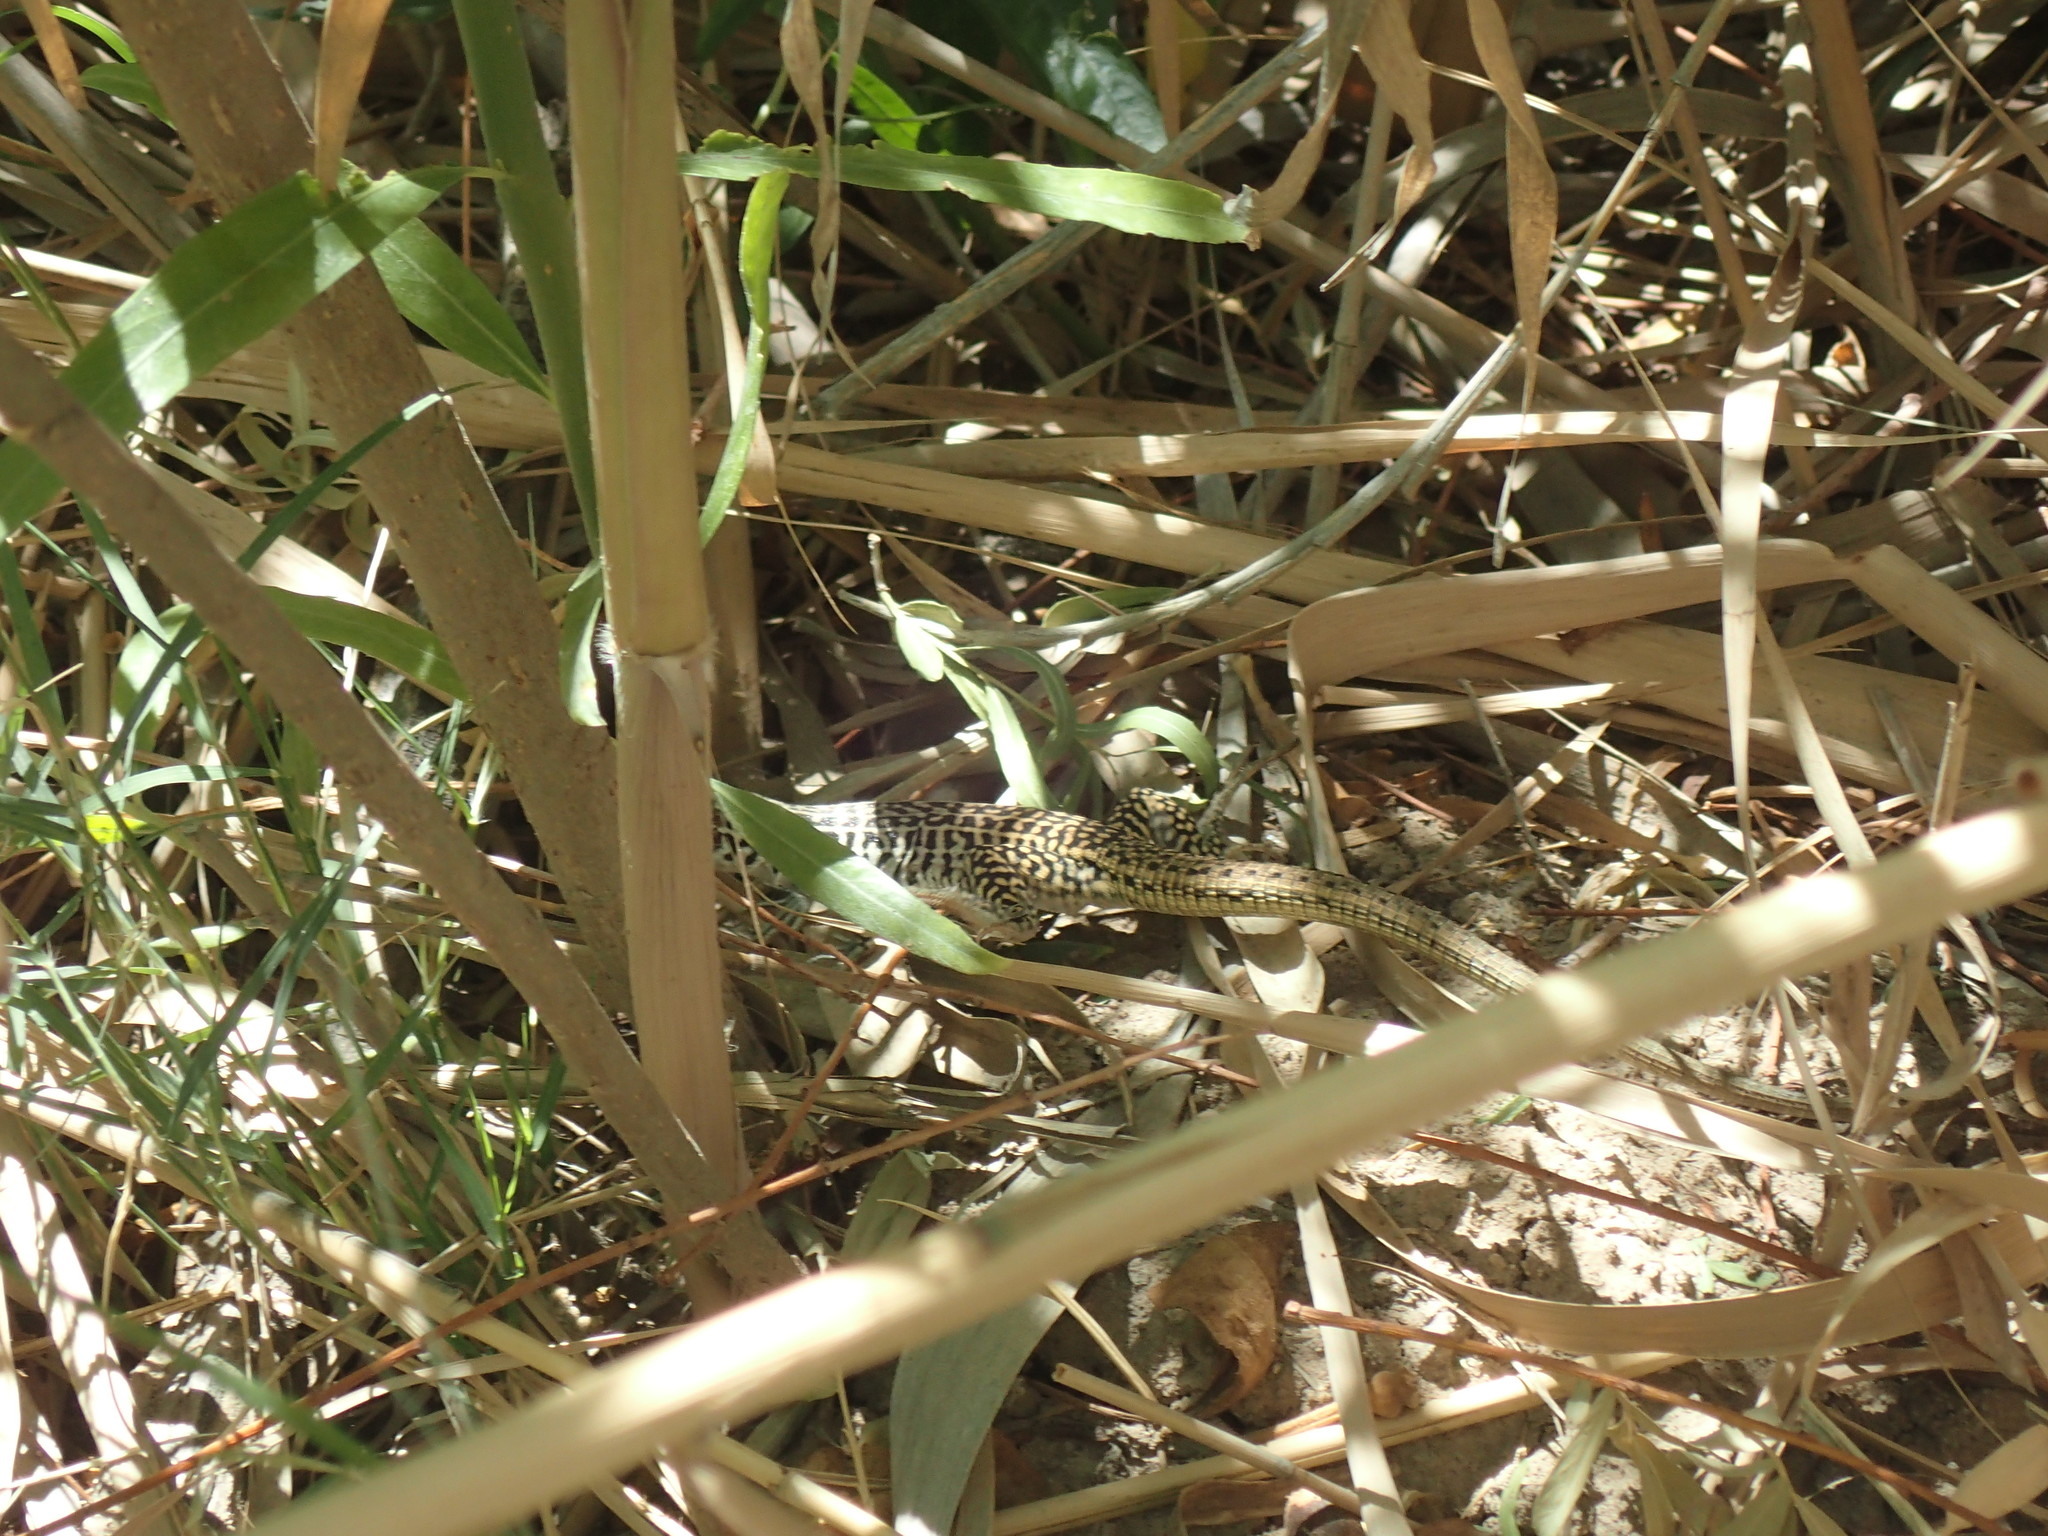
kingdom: Animalia
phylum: Chordata
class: Squamata
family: Teiidae
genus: Aspidoscelis
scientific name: Aspidoscelis tesselatus
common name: Common checkered whiptail [tesselata]
